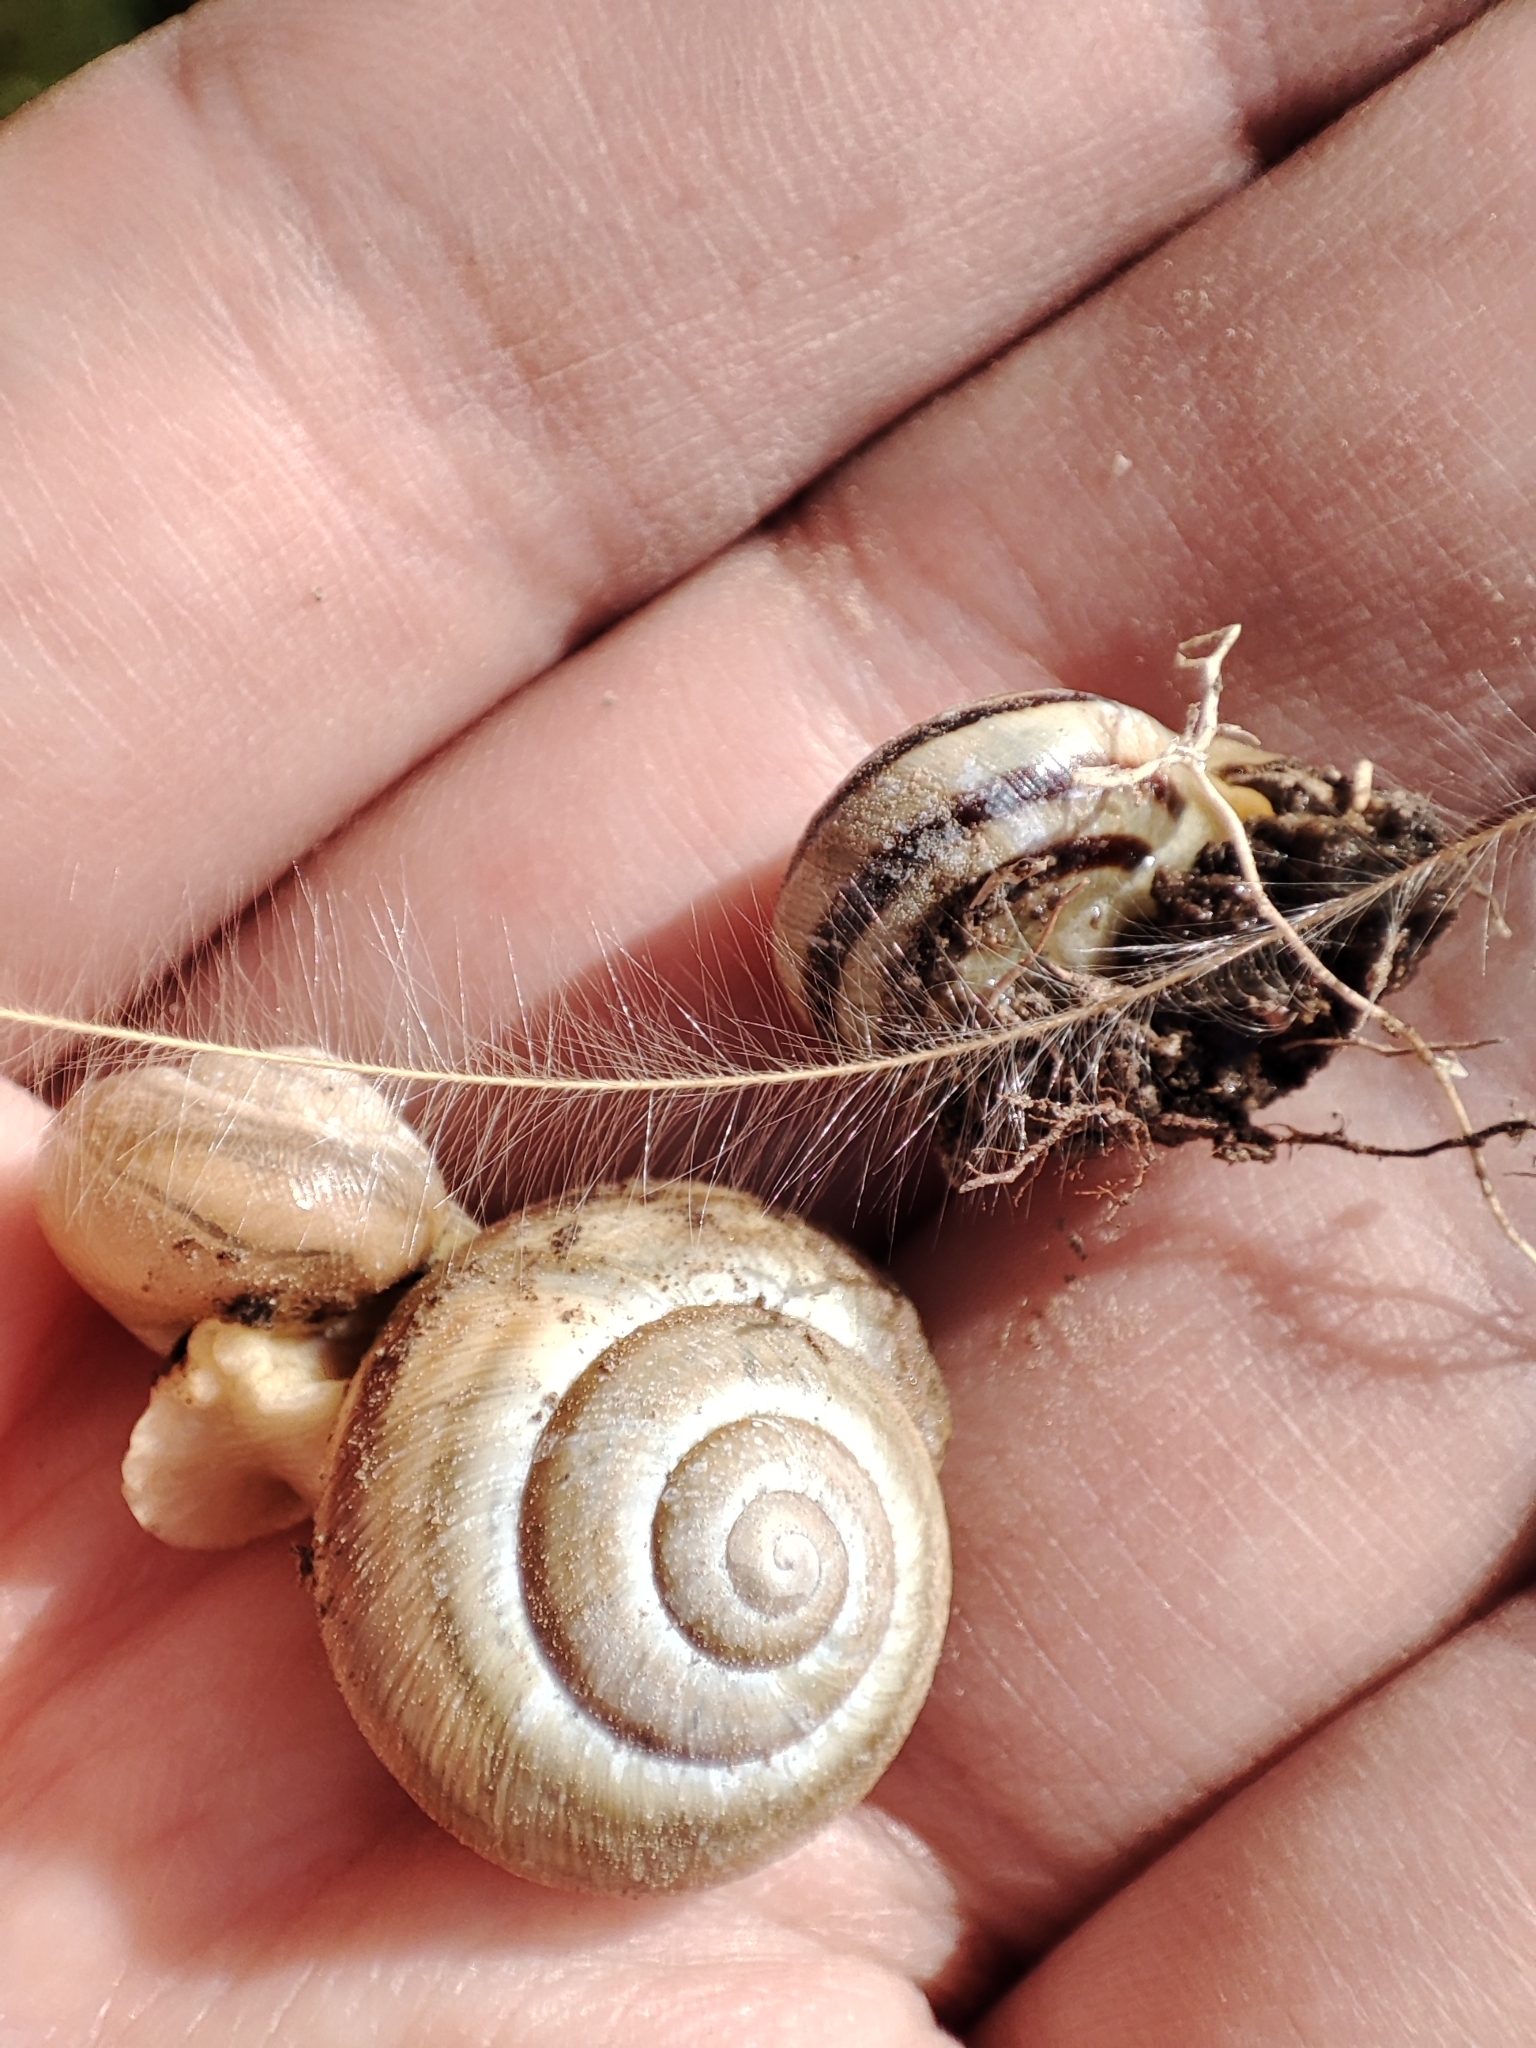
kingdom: Animalia
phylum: Mollusca
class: Gastropoda
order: Stylommatophora
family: Helicidae
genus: Caucasotachea
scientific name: Caucasotachea vindobonensis
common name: European helicid land snail
